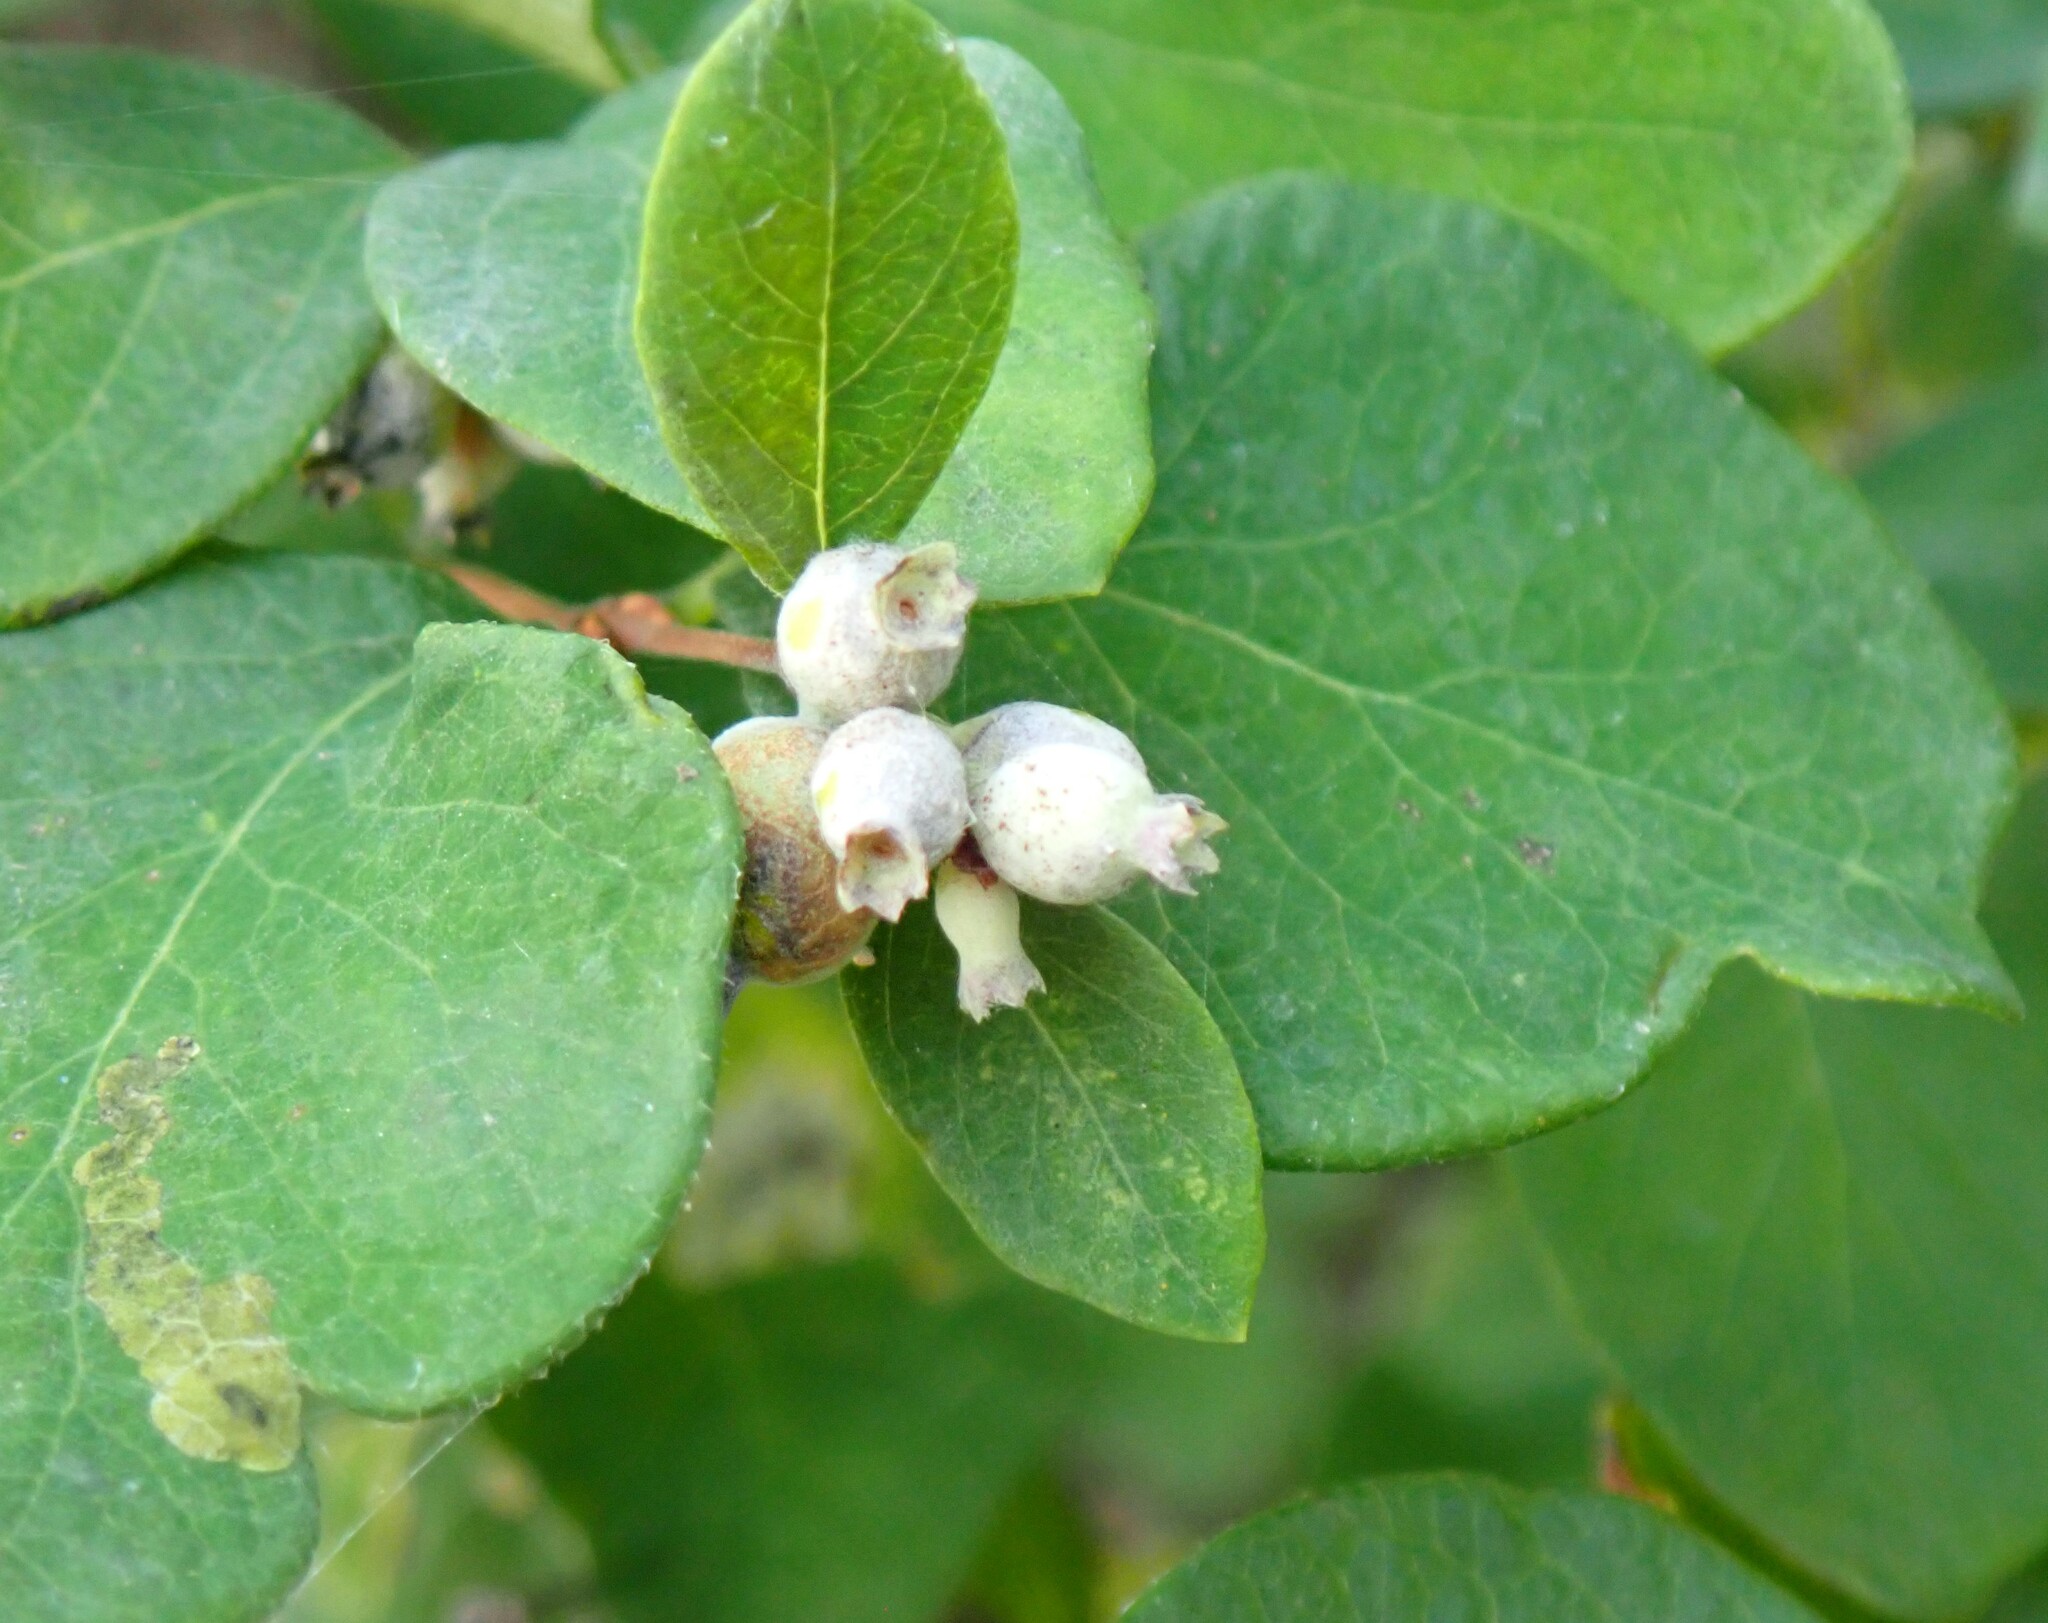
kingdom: Plantae
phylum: Tracheophyta
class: Magnoliopsida
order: Dipsacales
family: Caprifoliaceae
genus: Symphoricarpos
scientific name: Symphoricarpos occidentalis
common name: Wolfberry
